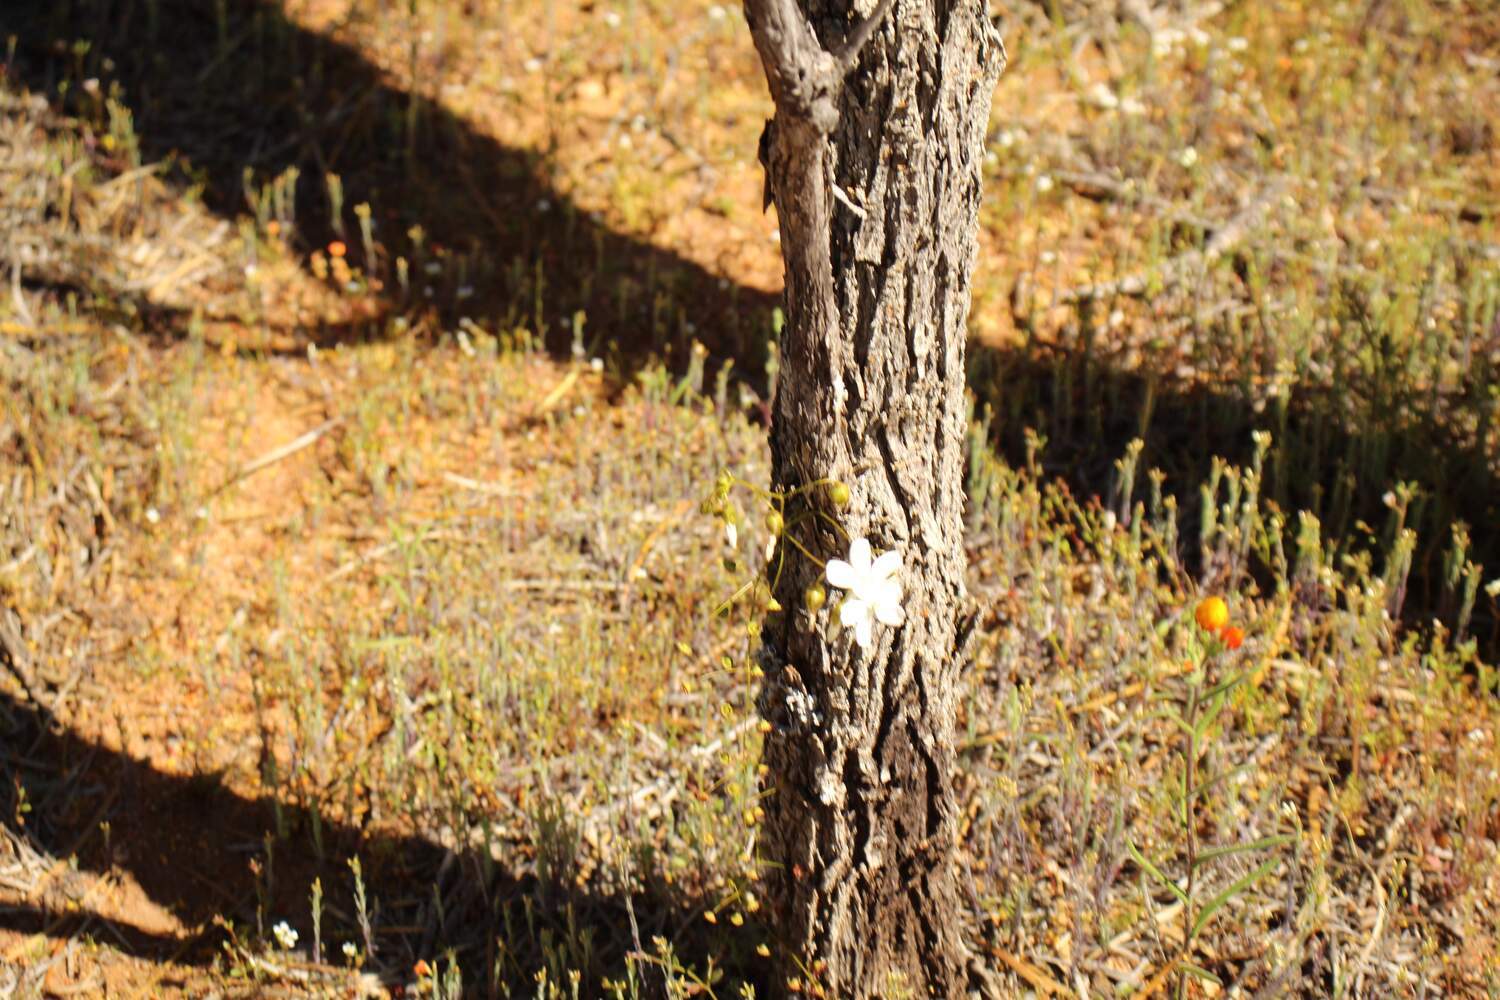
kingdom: Plantae
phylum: Tracheophyta
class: Magnoliopsida
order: Caryophyllales
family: Droseraceae
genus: Drosera
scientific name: Drosera macrantha
